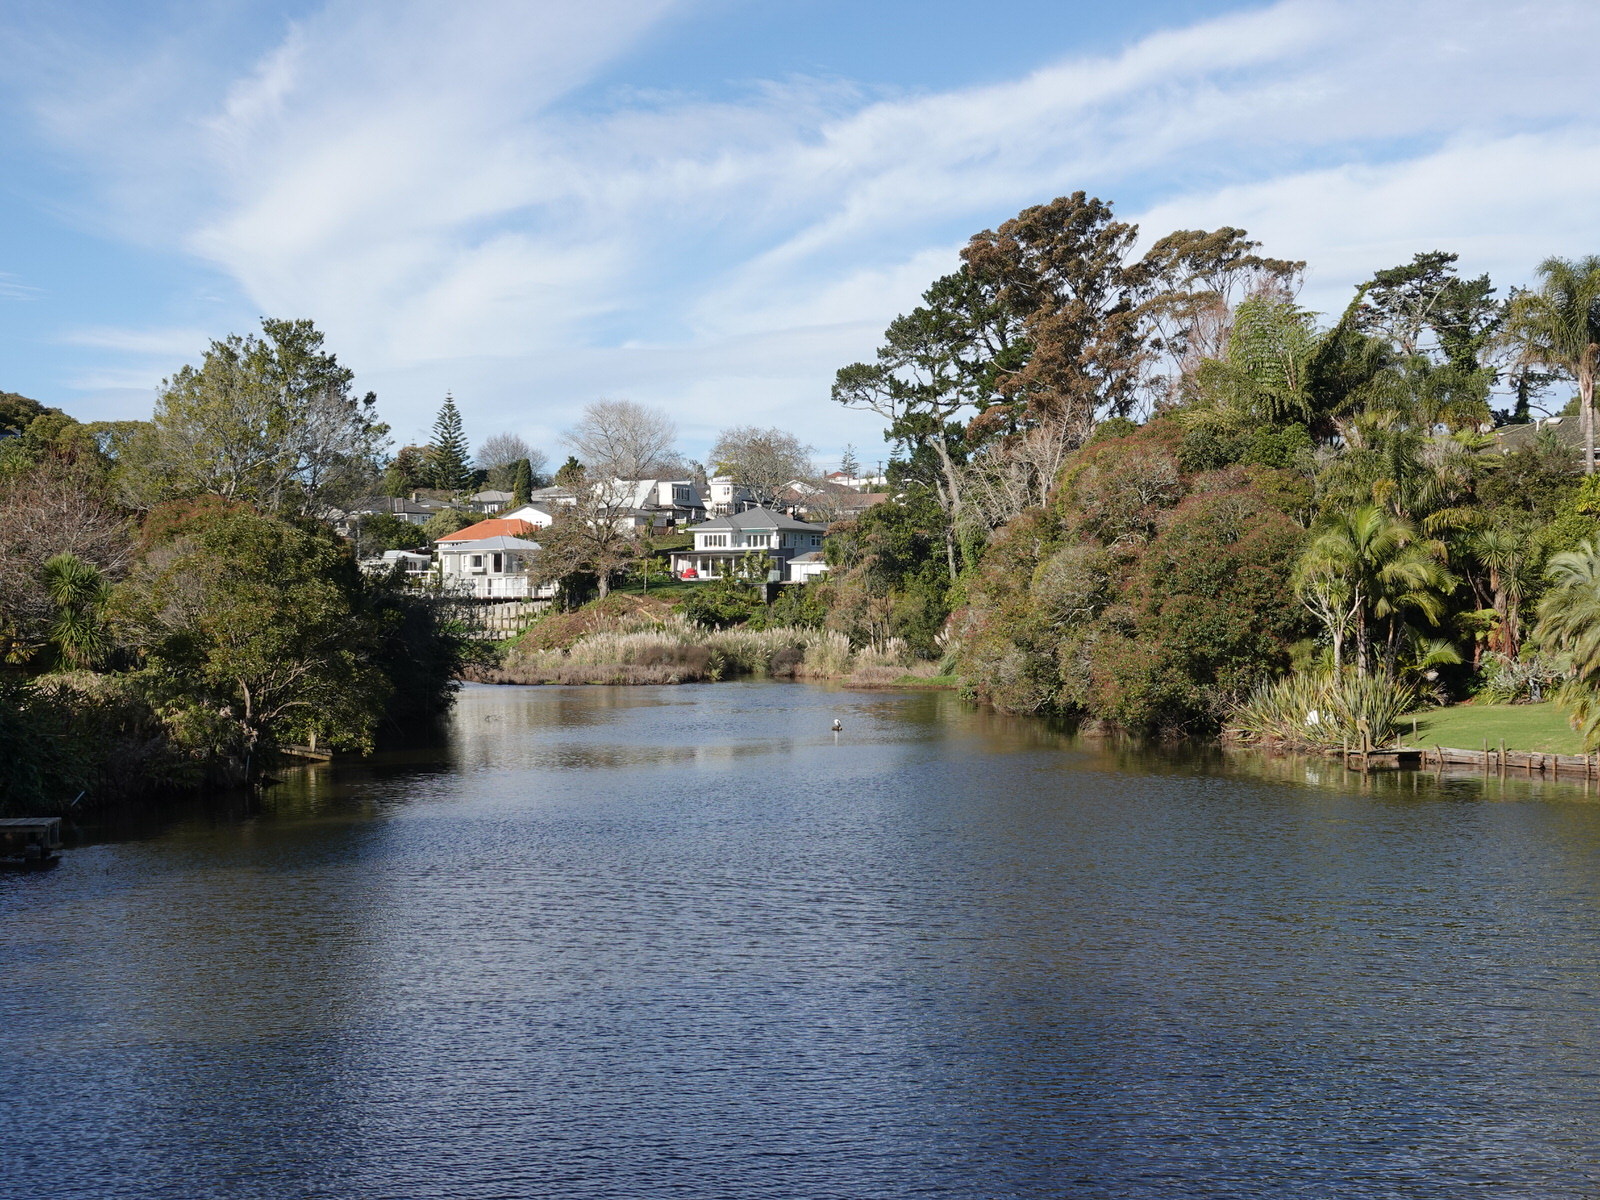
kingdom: Animalia
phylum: Chordata
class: Aves
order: Columbiformes
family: Columbidae
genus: Hemiphaga
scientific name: Hemiphaga novaeseelandiae
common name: New zealand pigeon
